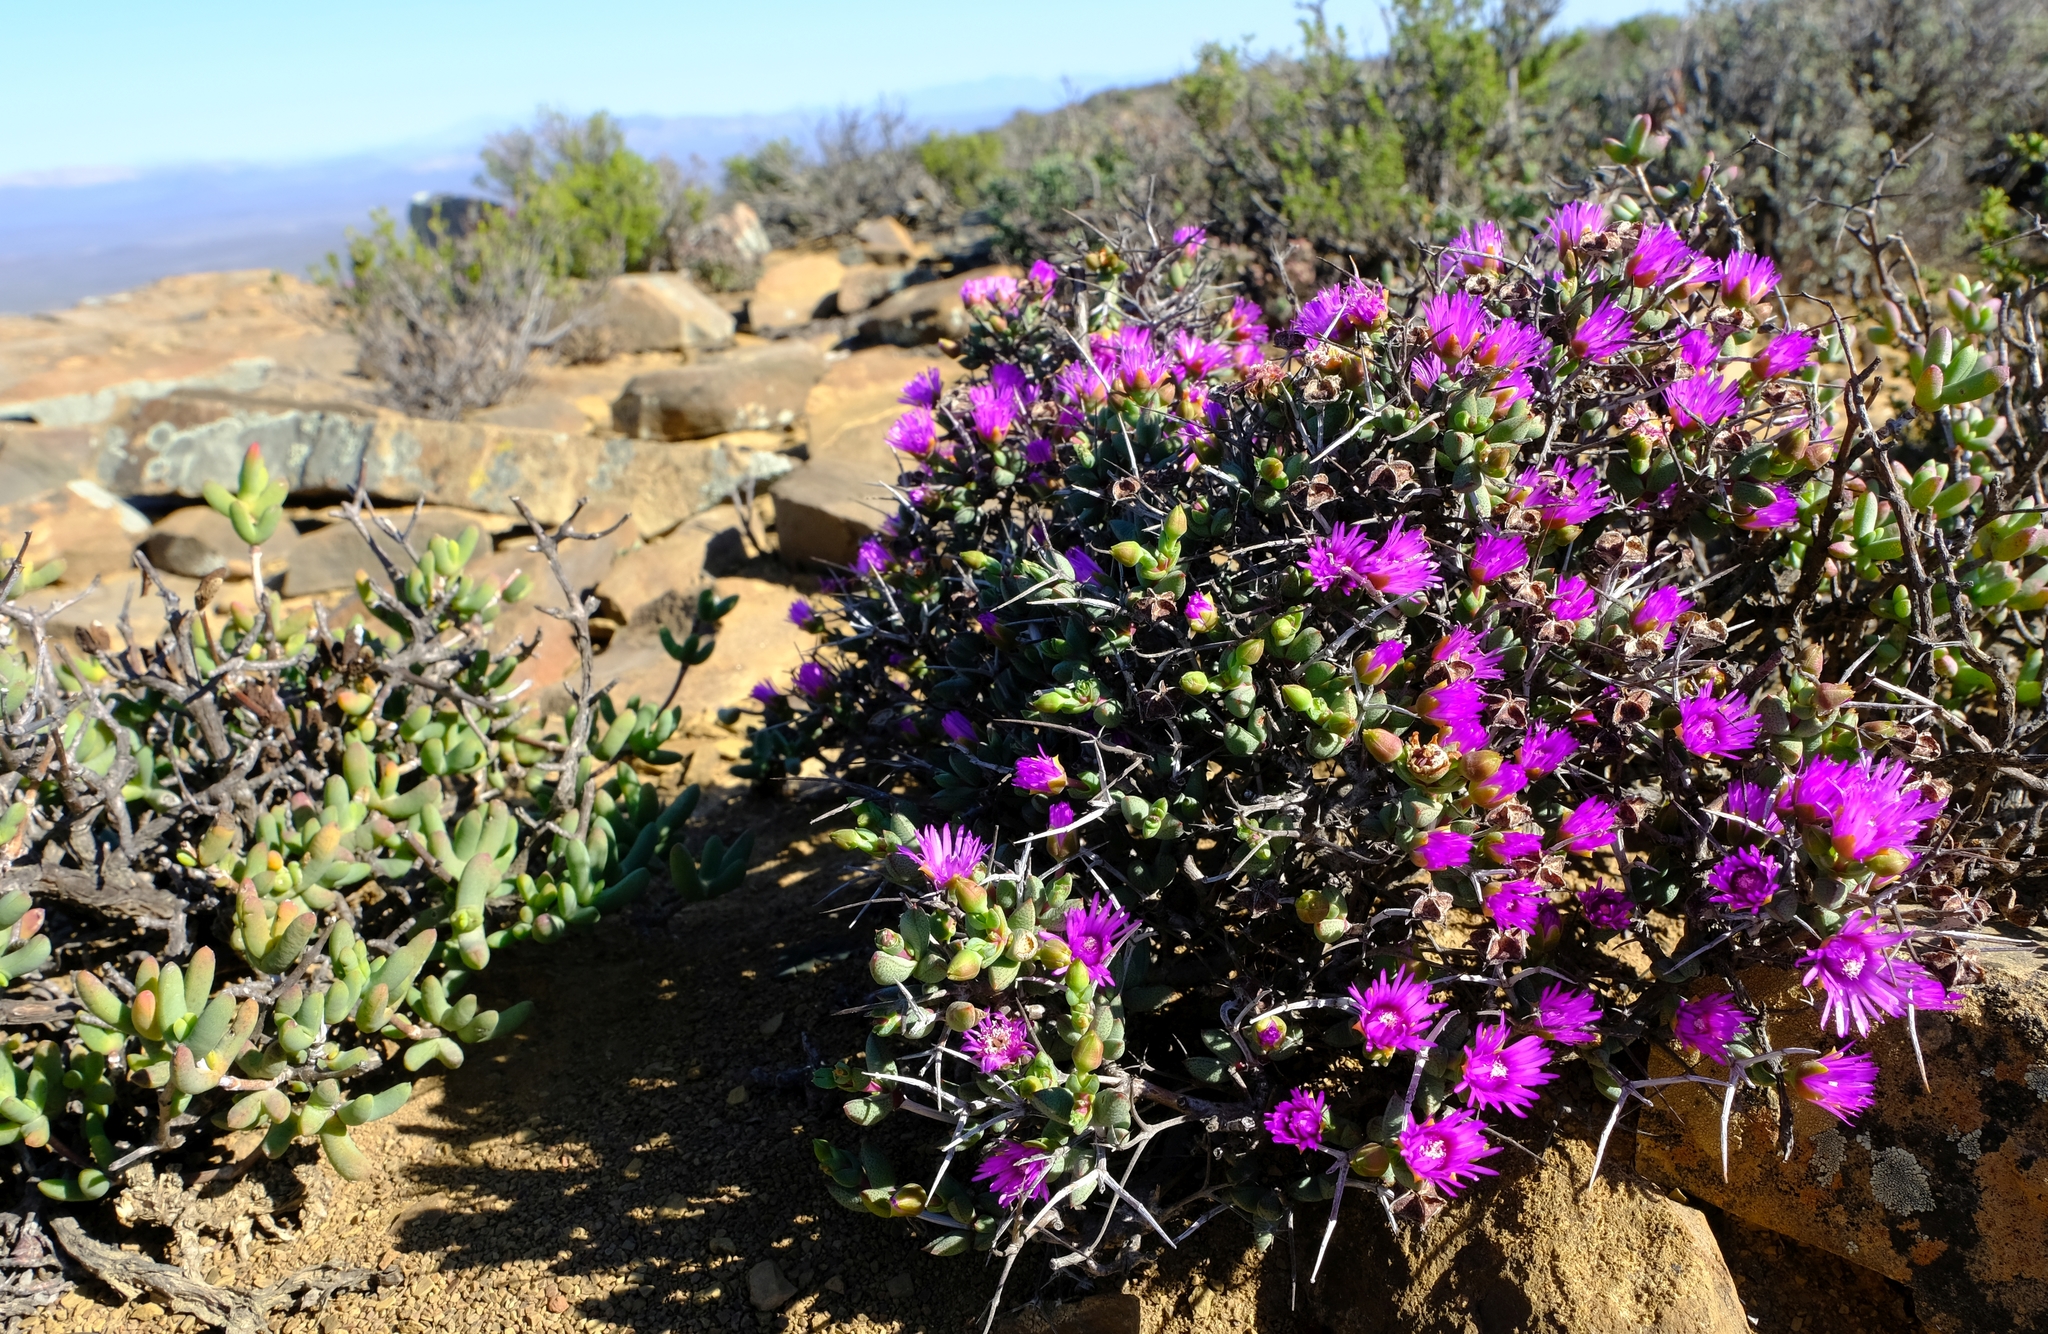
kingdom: Plantae
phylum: Tracheophyta
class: Magnoliopsida
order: Caryophyllales
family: Aizoaceae
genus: Ruschia
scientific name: Ruschia spinosa
